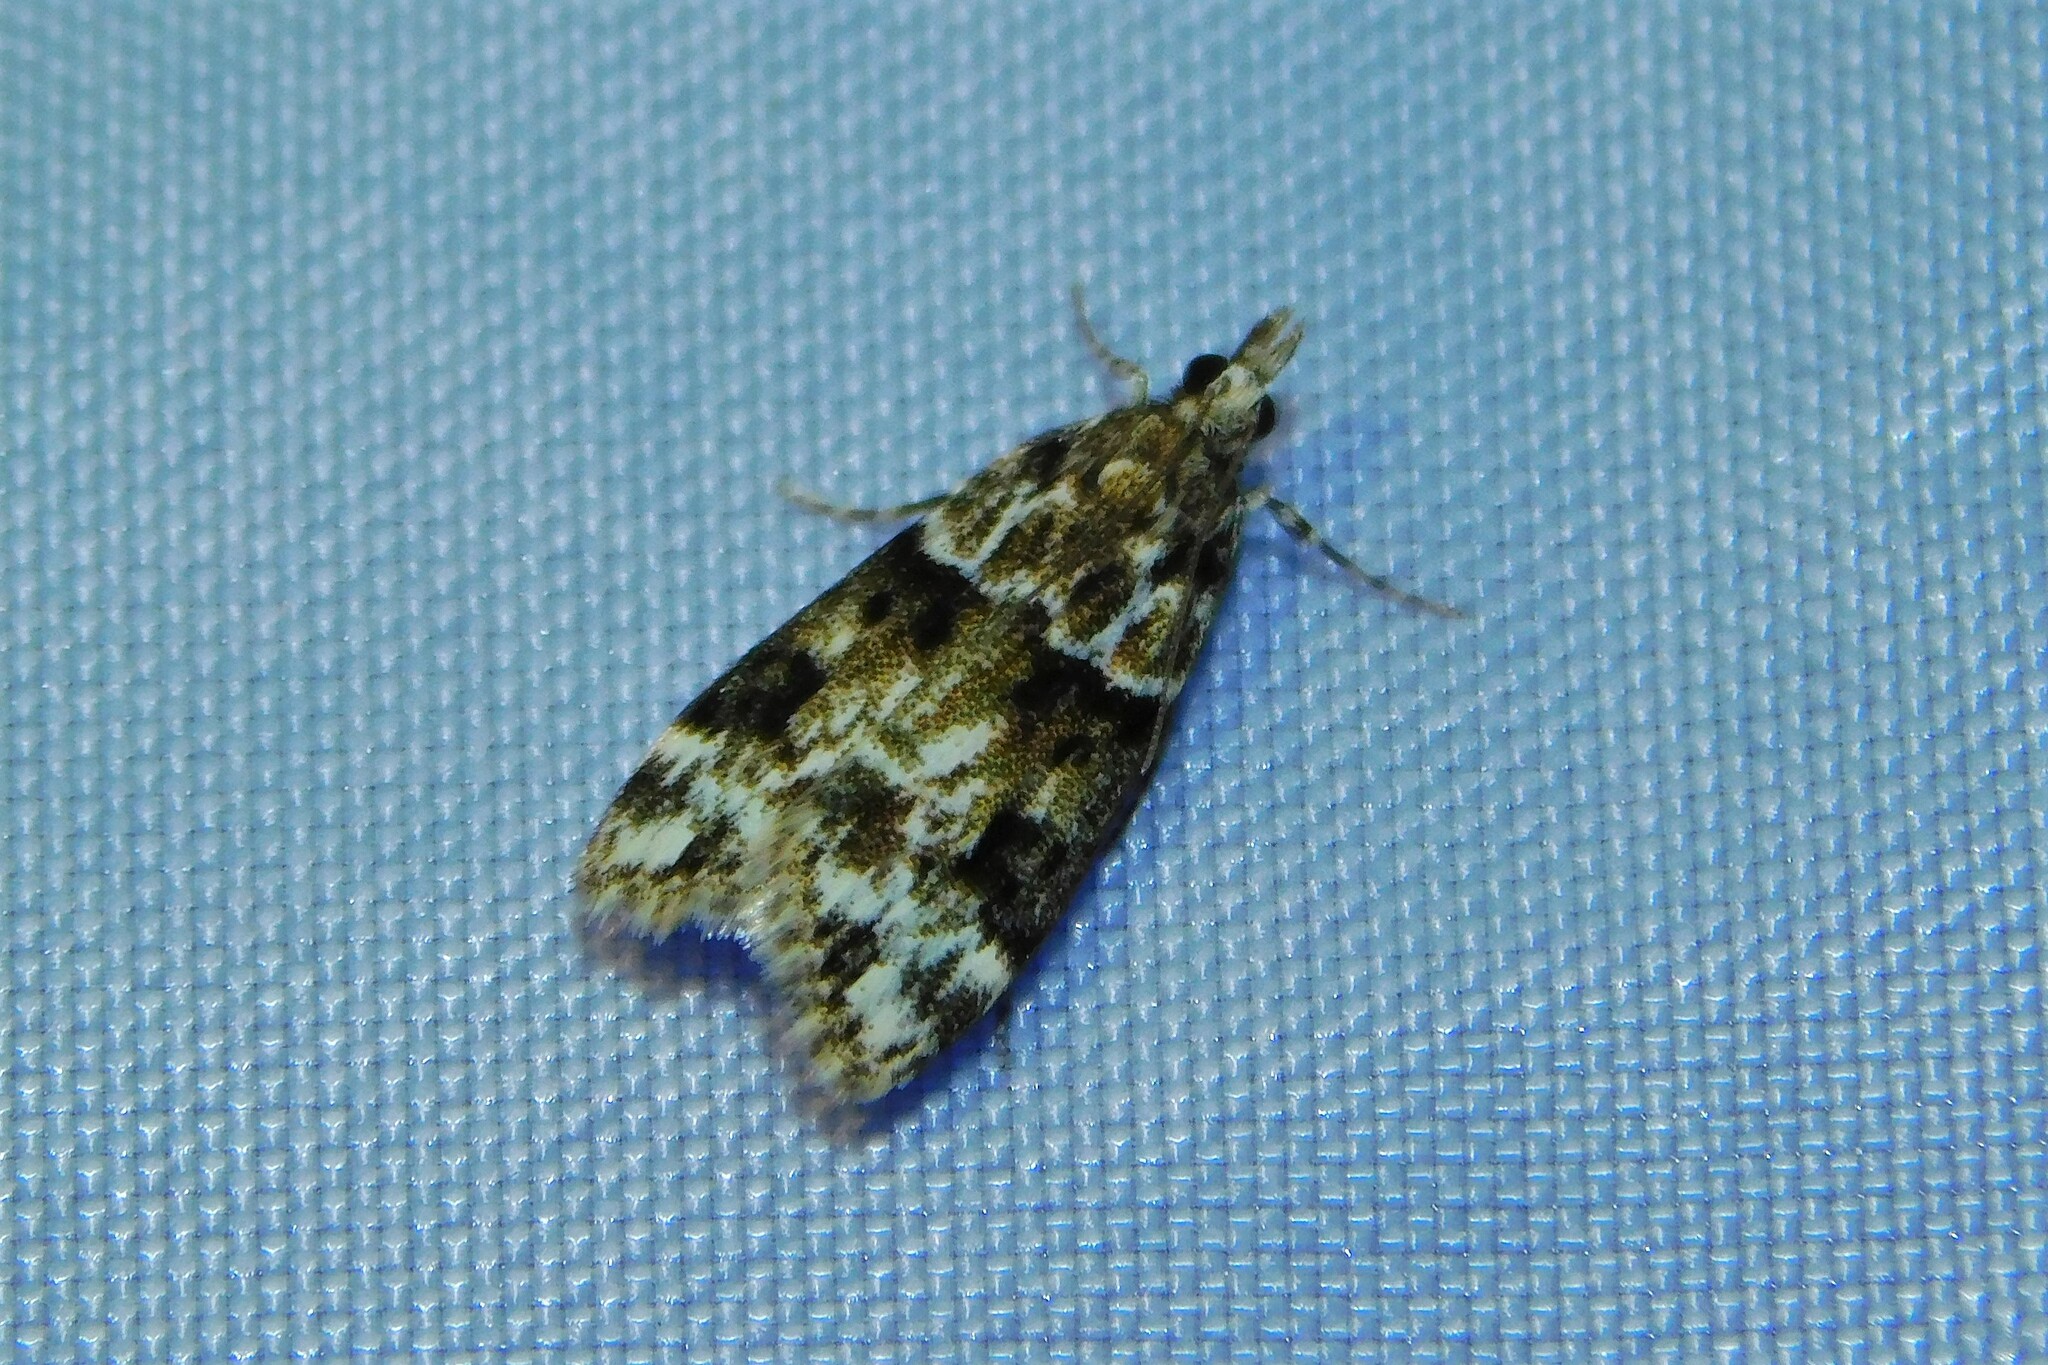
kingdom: Animalia
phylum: Arthropoda
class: Insecta
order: Lepidoptera
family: Crambidae
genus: Eudonia
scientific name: Eudonia delunella
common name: Pied grey
